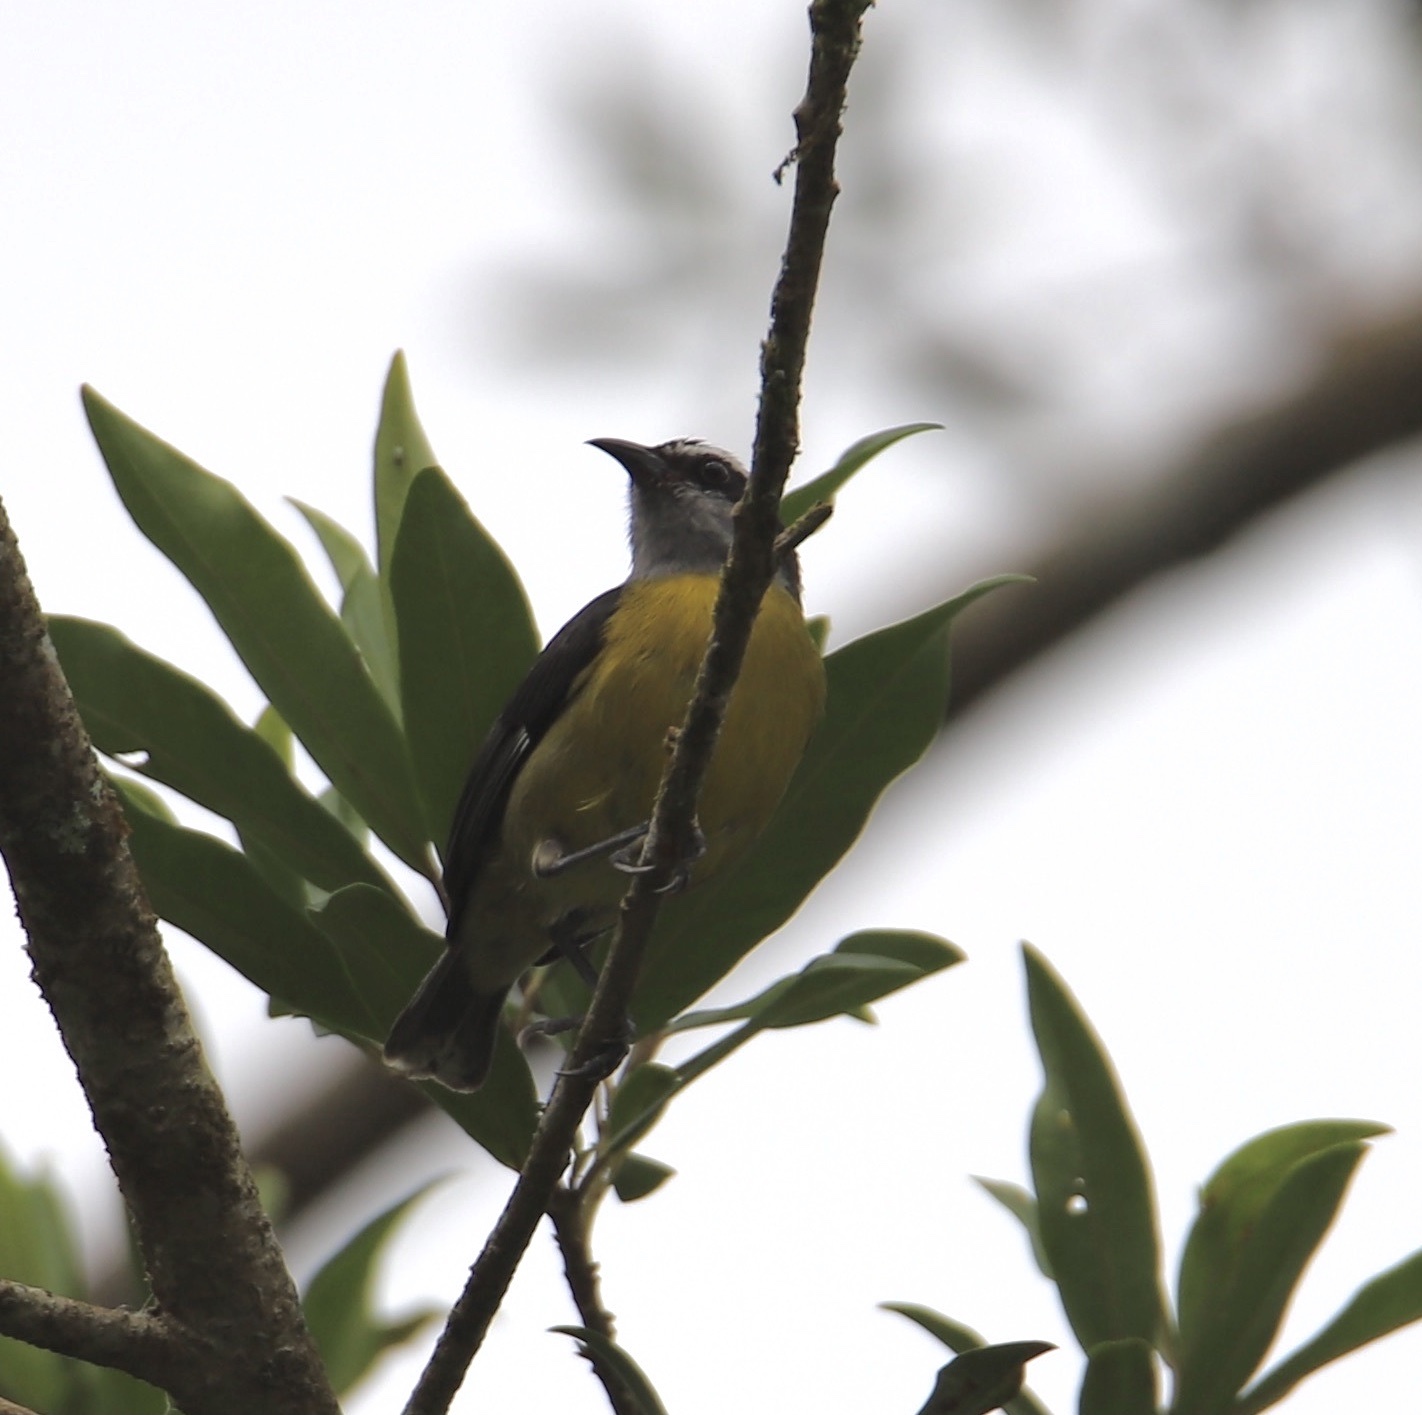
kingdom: Animalia
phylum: Chordata
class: Aves
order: Passeriformes
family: Thraupidae
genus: Coereba
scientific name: Coereba flaveola
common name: Bananaquit
